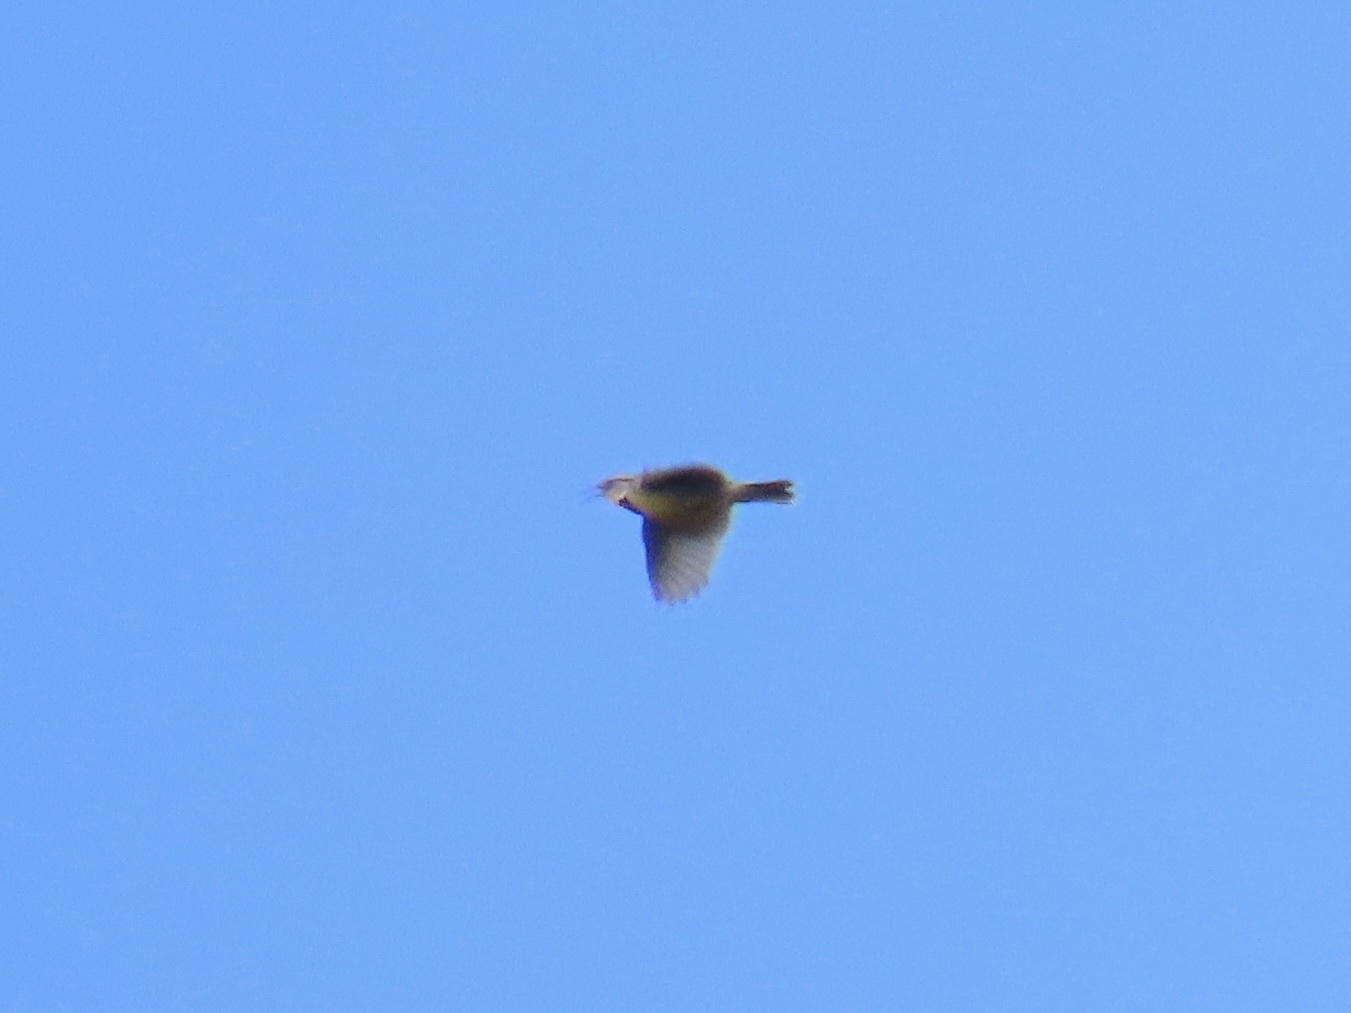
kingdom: Animalia
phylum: Chordata
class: Aves
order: Passeriformes
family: Icteridae
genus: Sturnella
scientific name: Sturnella neglecta
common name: Western meadowlark
